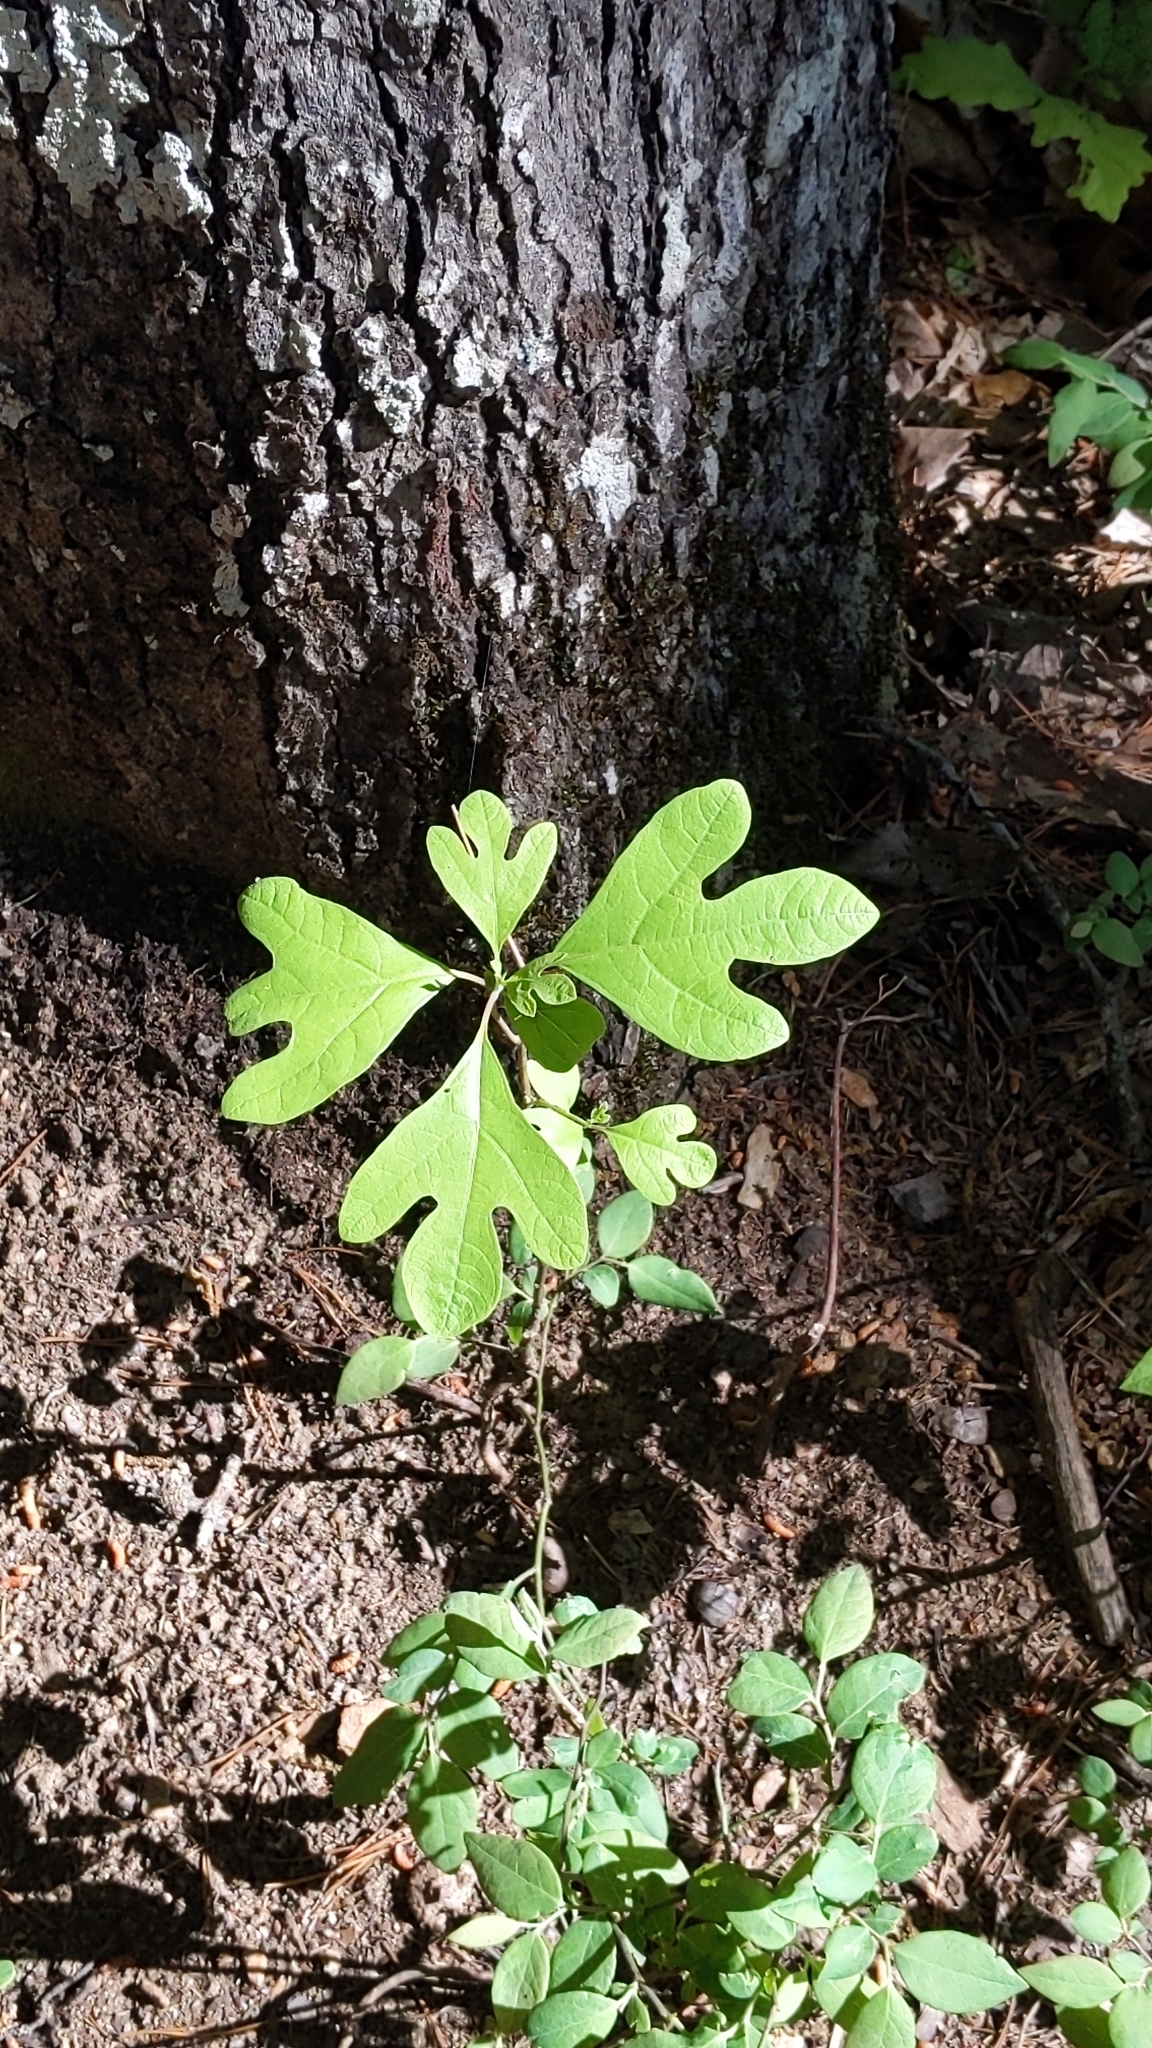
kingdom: Plantae
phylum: Tracheophyta
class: Magnoliopsida
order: Laurales
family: Lauraceae
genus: Sassafras
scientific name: Sassafras albidum
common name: Sassafras
